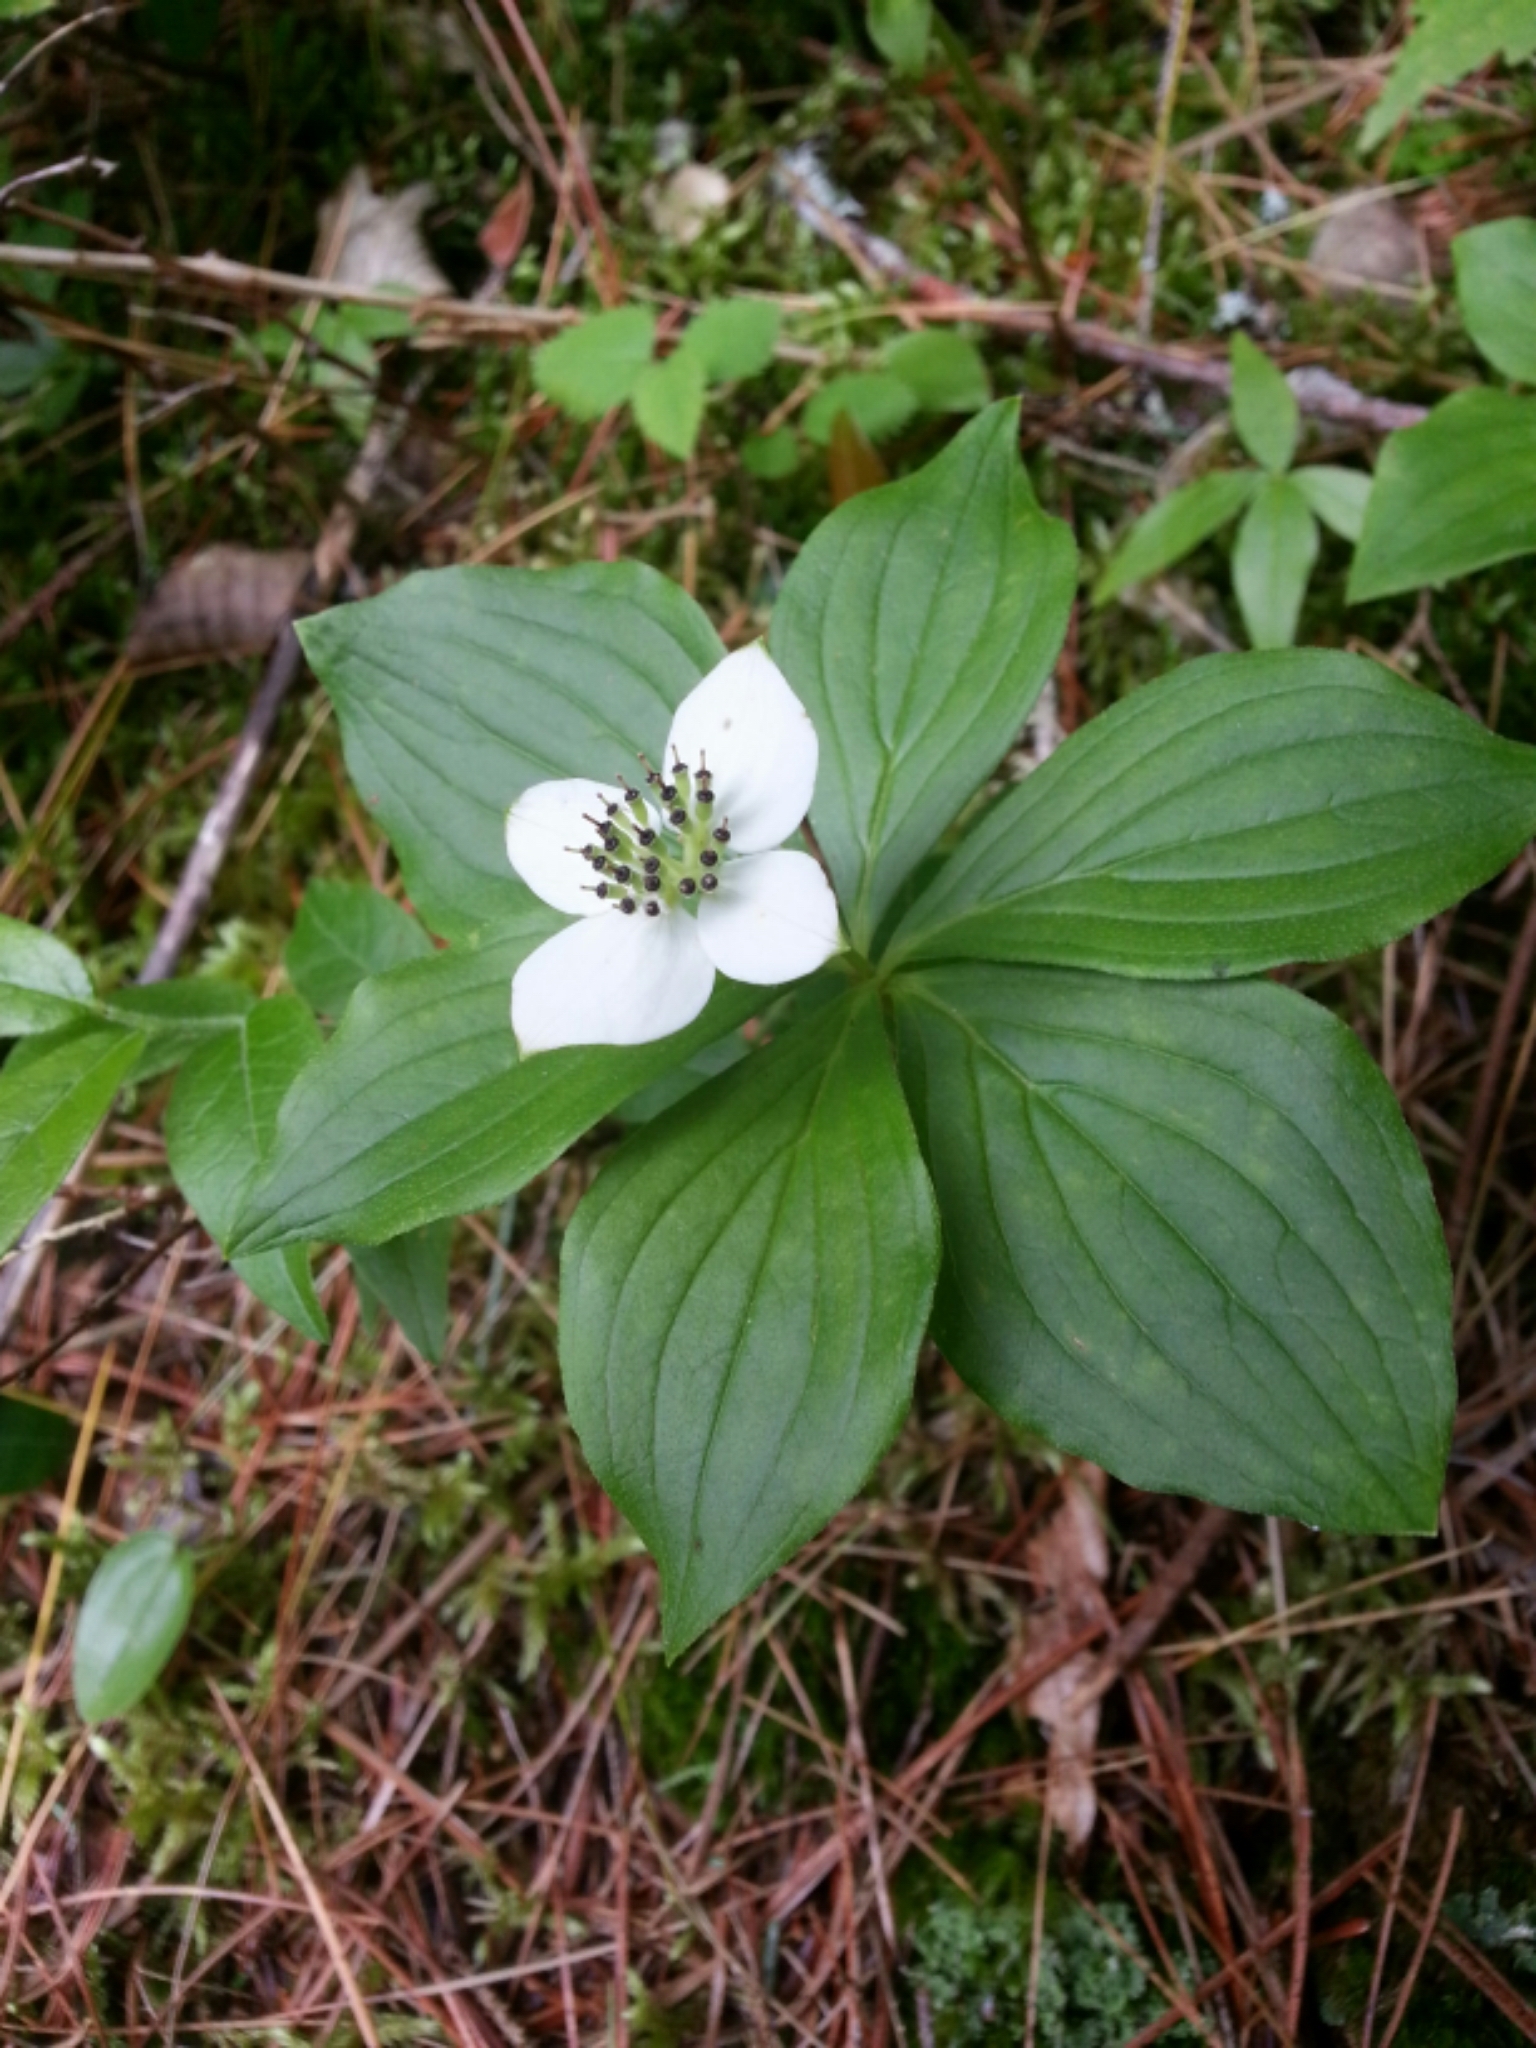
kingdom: Plantae
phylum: Tracheophyta
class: Magnoliopsida
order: Cornales
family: Cornaceae
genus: Cornus
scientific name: Cornus canadensis
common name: Creeping dogwood
